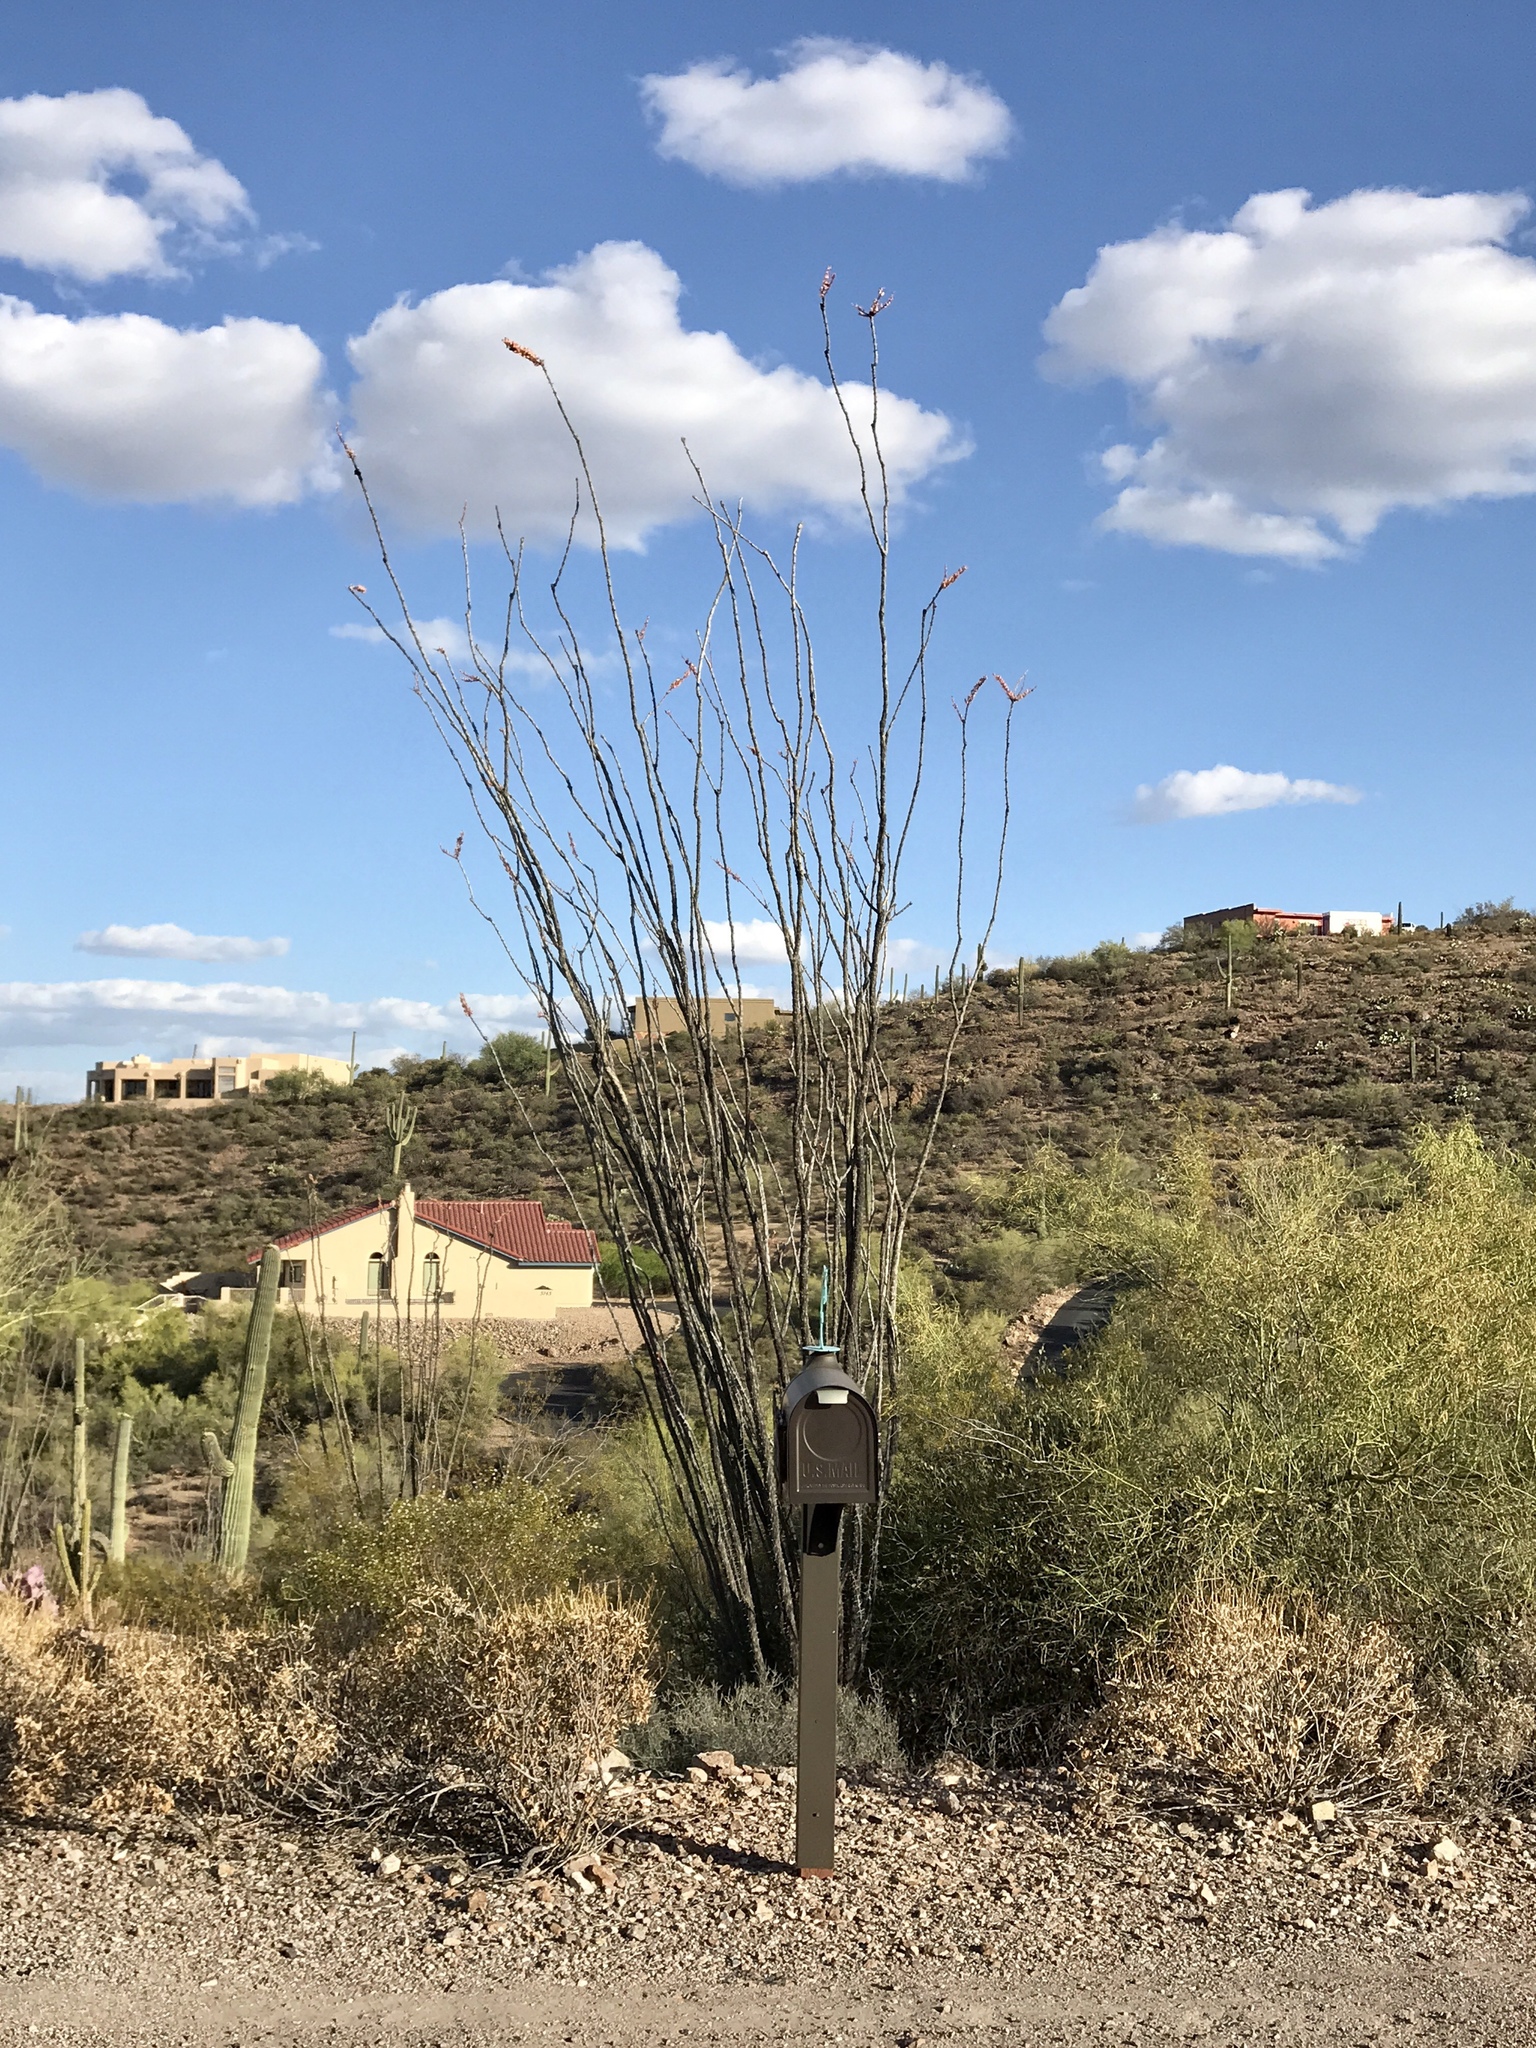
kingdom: Plantae
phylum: Tracheophyta
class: Magnoliopsida
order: Ericales
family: Fouquieriaceae
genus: Fouquieria
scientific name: Fouquieria splendens
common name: Vine-cactus
